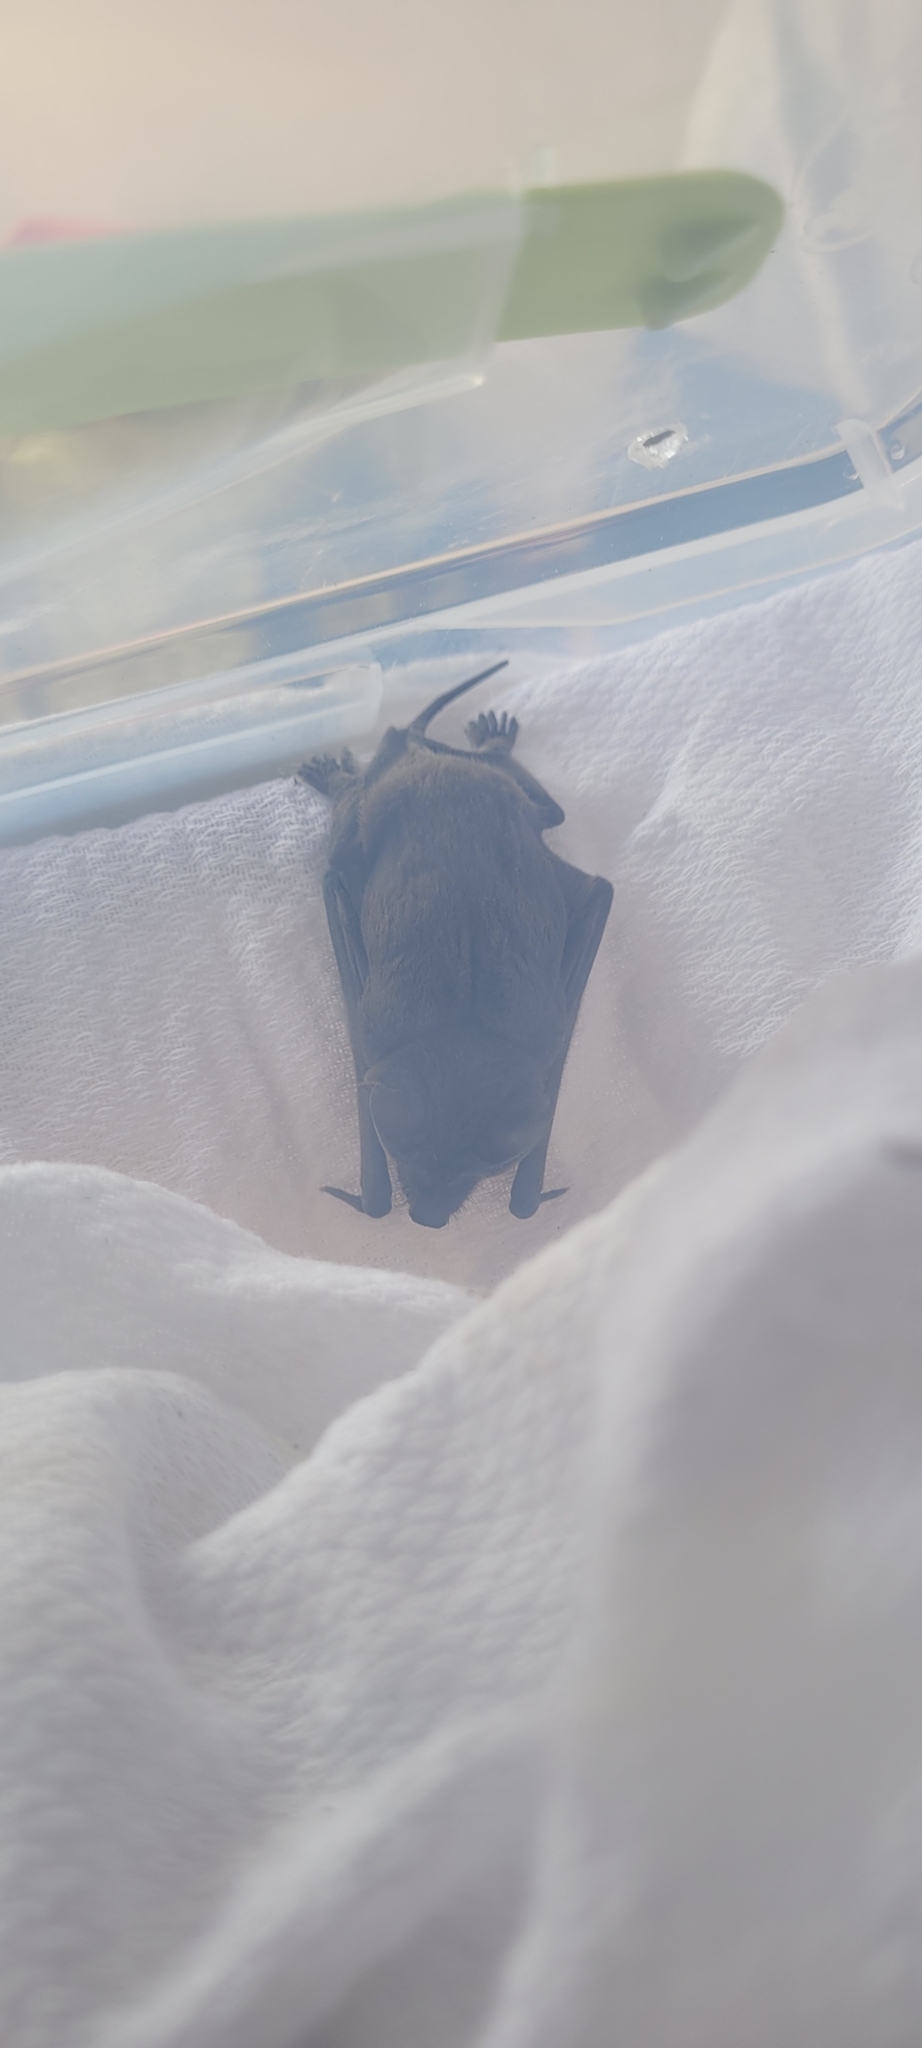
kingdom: Animalia
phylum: Chordata
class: Mammalia
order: Chiroptera
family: Molossidae
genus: Tadarida
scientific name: Tadarida brasiliensis
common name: Mexican free-tailed bat
